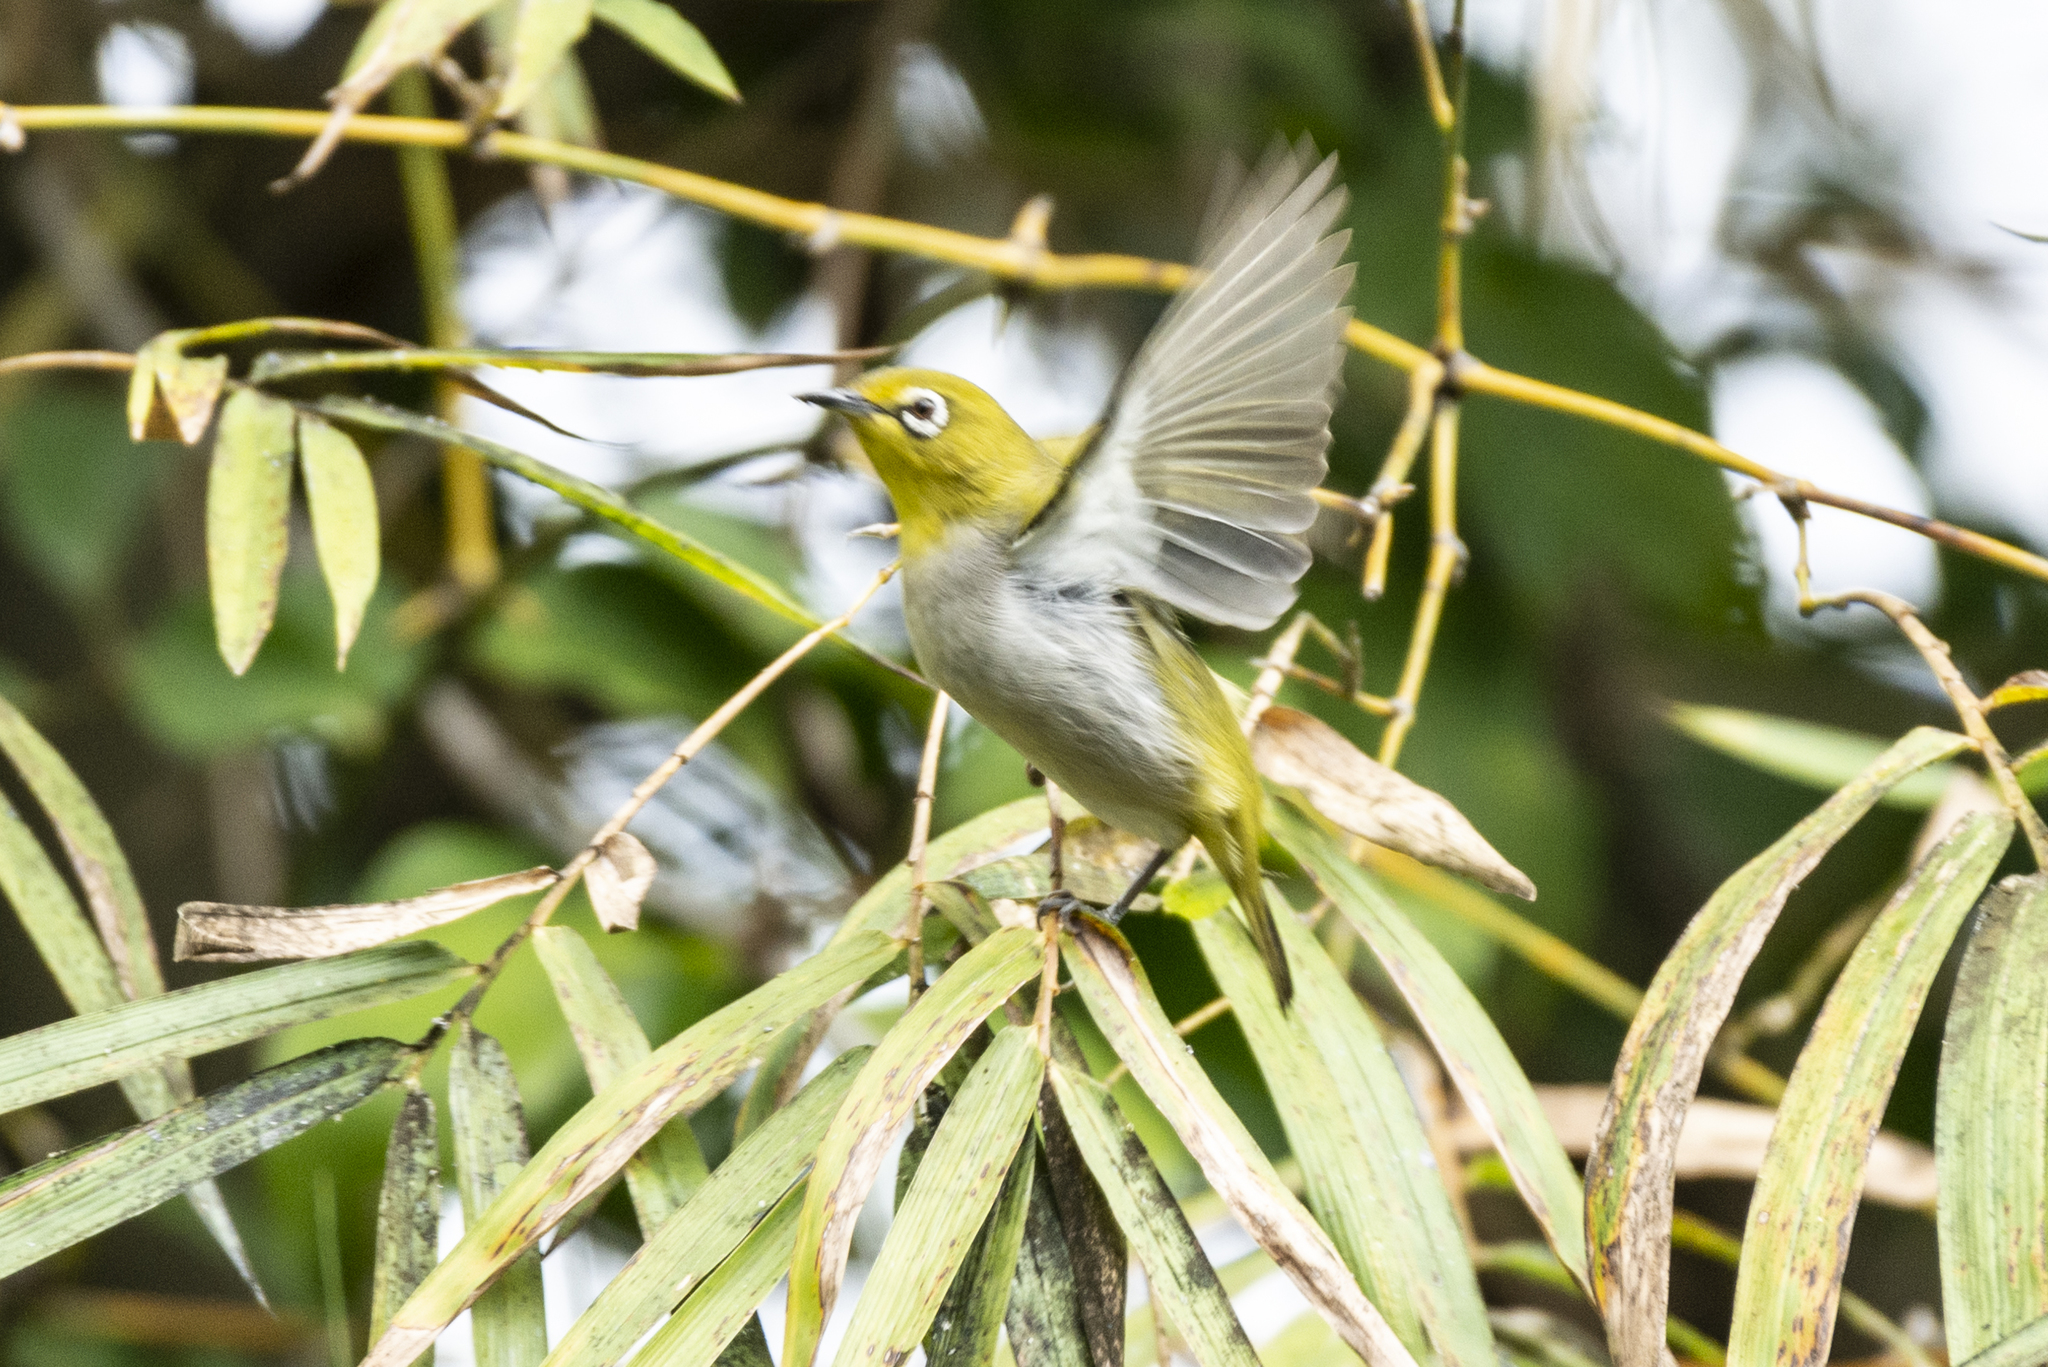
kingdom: Animalia
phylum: Chordata
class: Aves
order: Passeriformes
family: Zosteropidae
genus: Zosterops
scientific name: Zosterops simplex
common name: Swinhoe's white-eye
